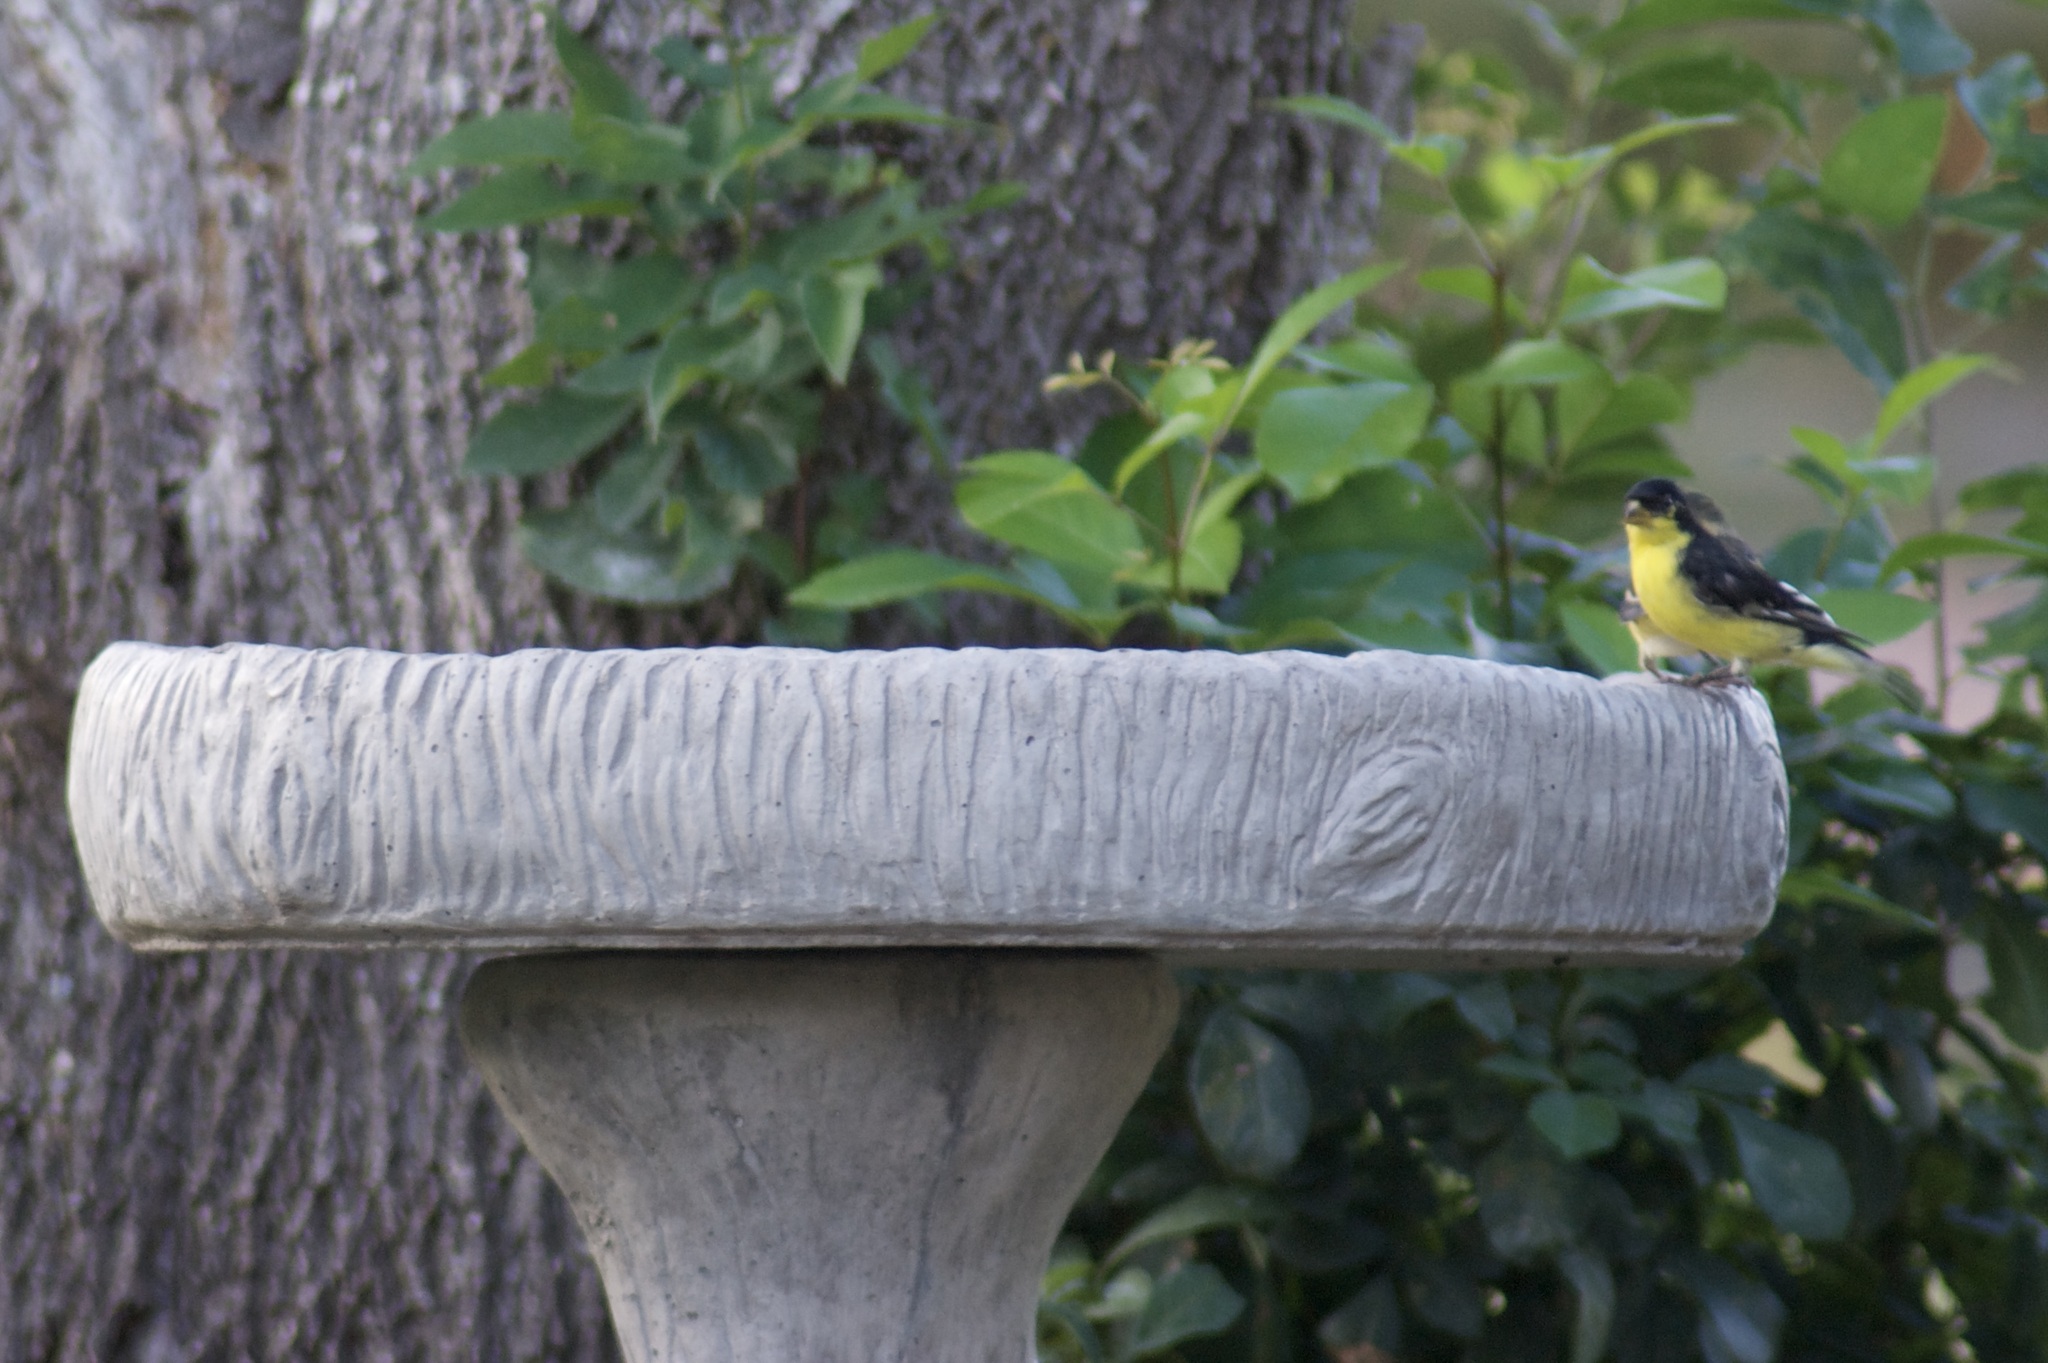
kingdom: Animalia
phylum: Chordata
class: Aves
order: Passeriformes
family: Fringillidae
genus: Spinus
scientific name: Spinus psaltria
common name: Lesser goldfinch
